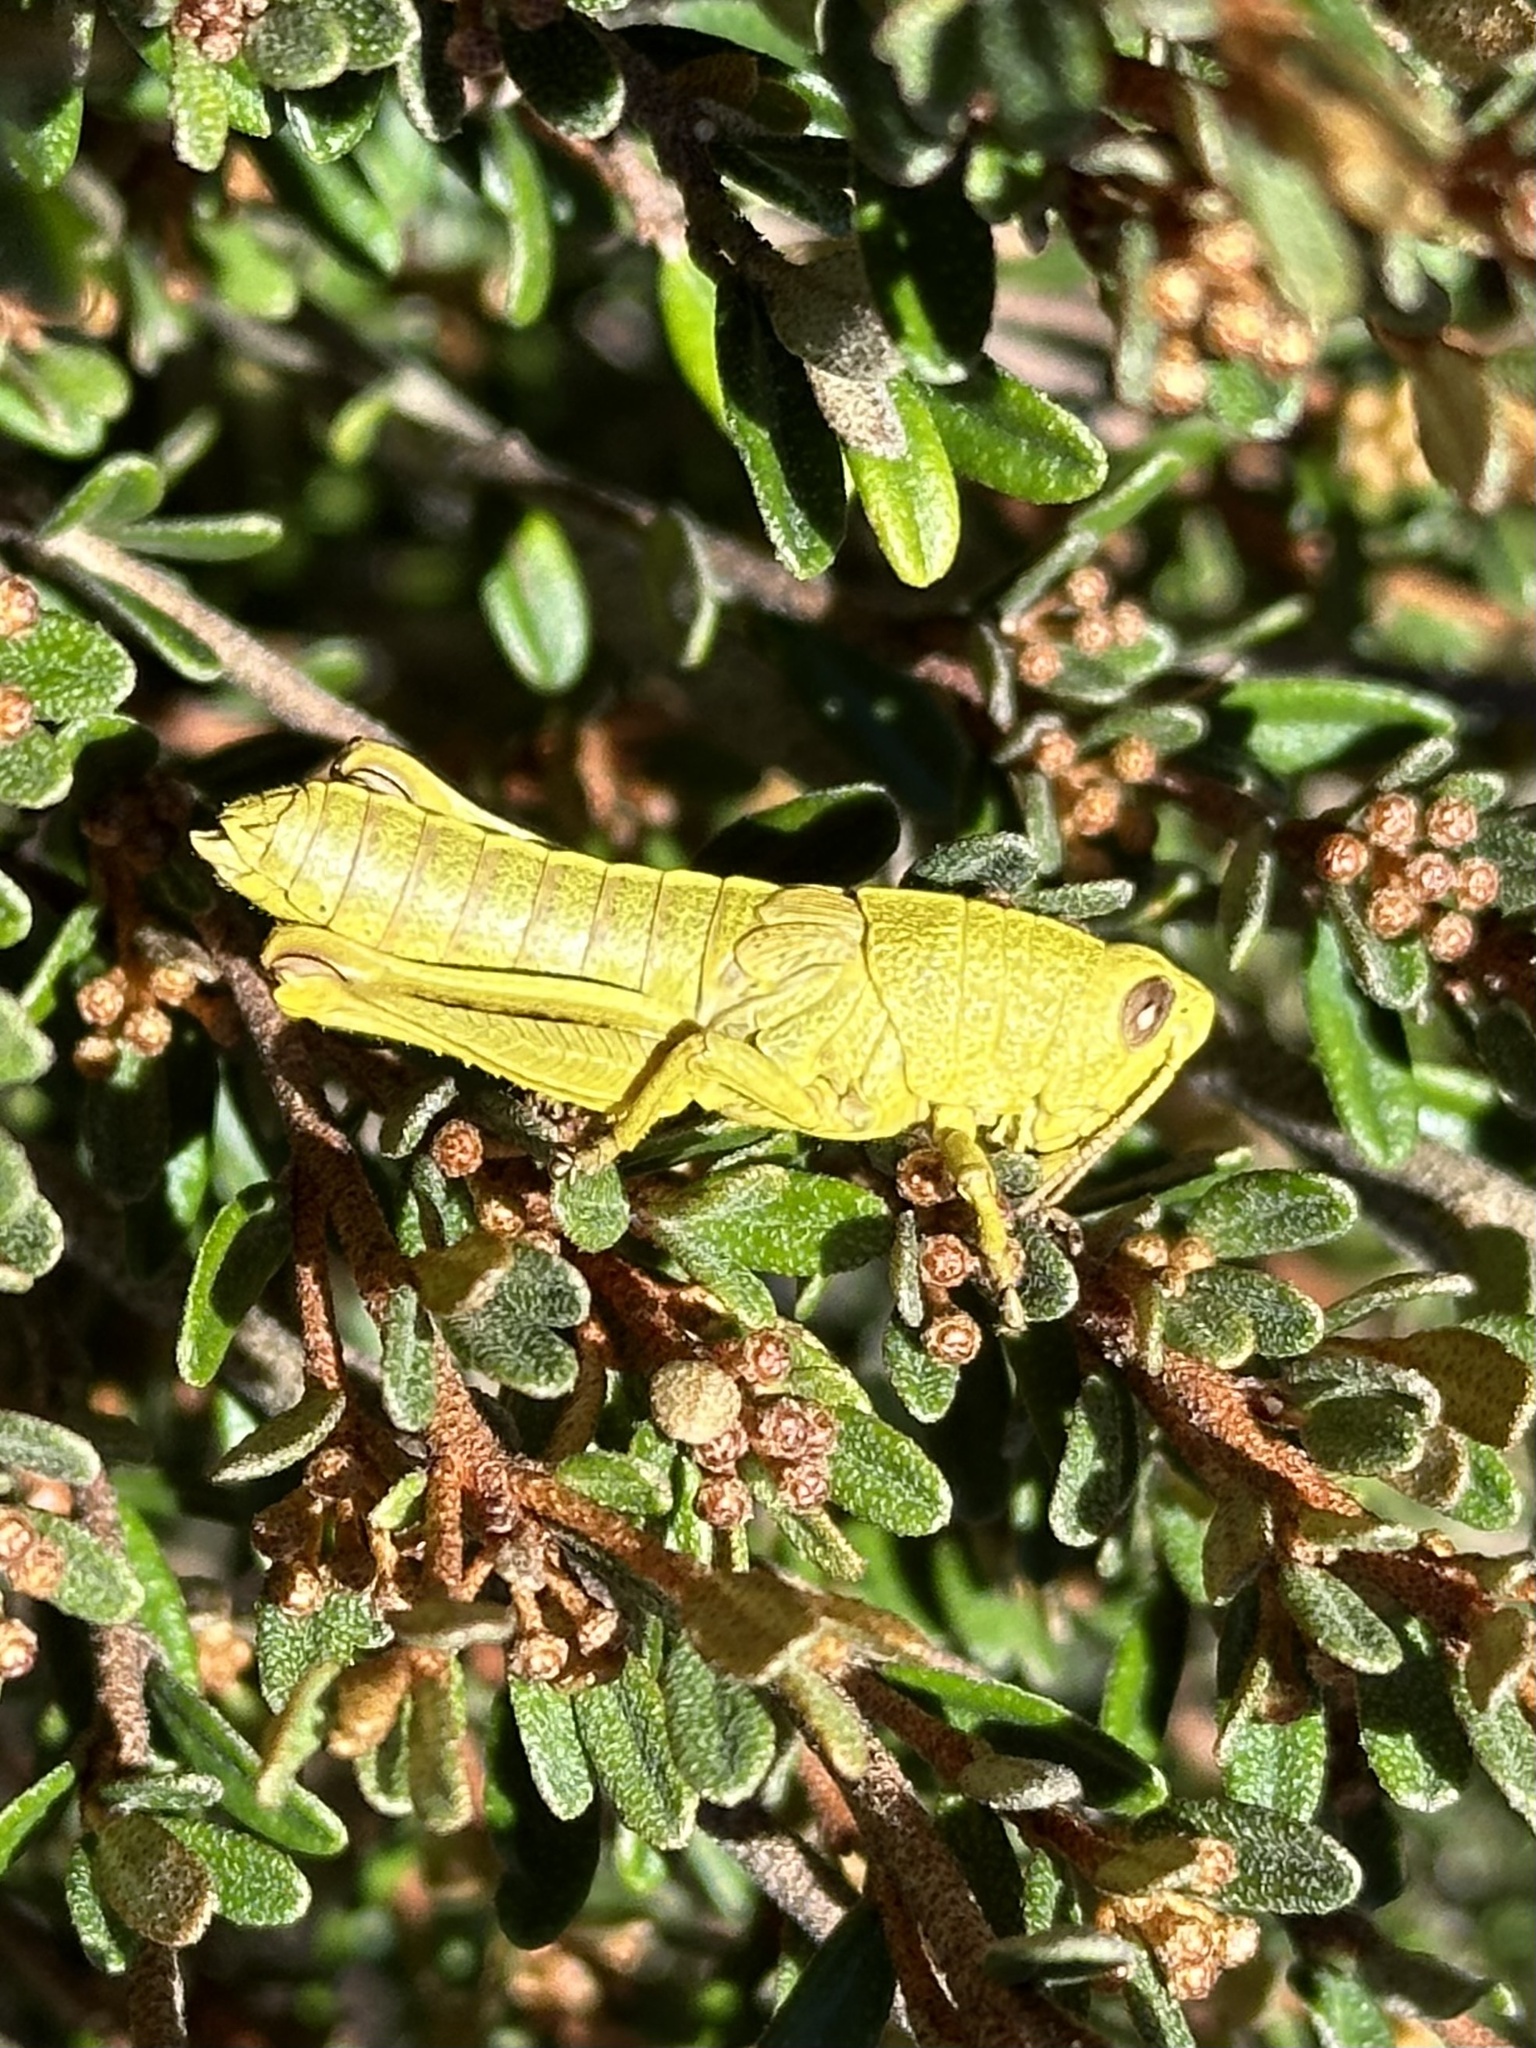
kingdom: Animalia
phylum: Arthropoda
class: Insecta
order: Orthoptera
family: Acrididae
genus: Percassa
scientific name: Percassa rugifrons
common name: Mountain grasshopper
